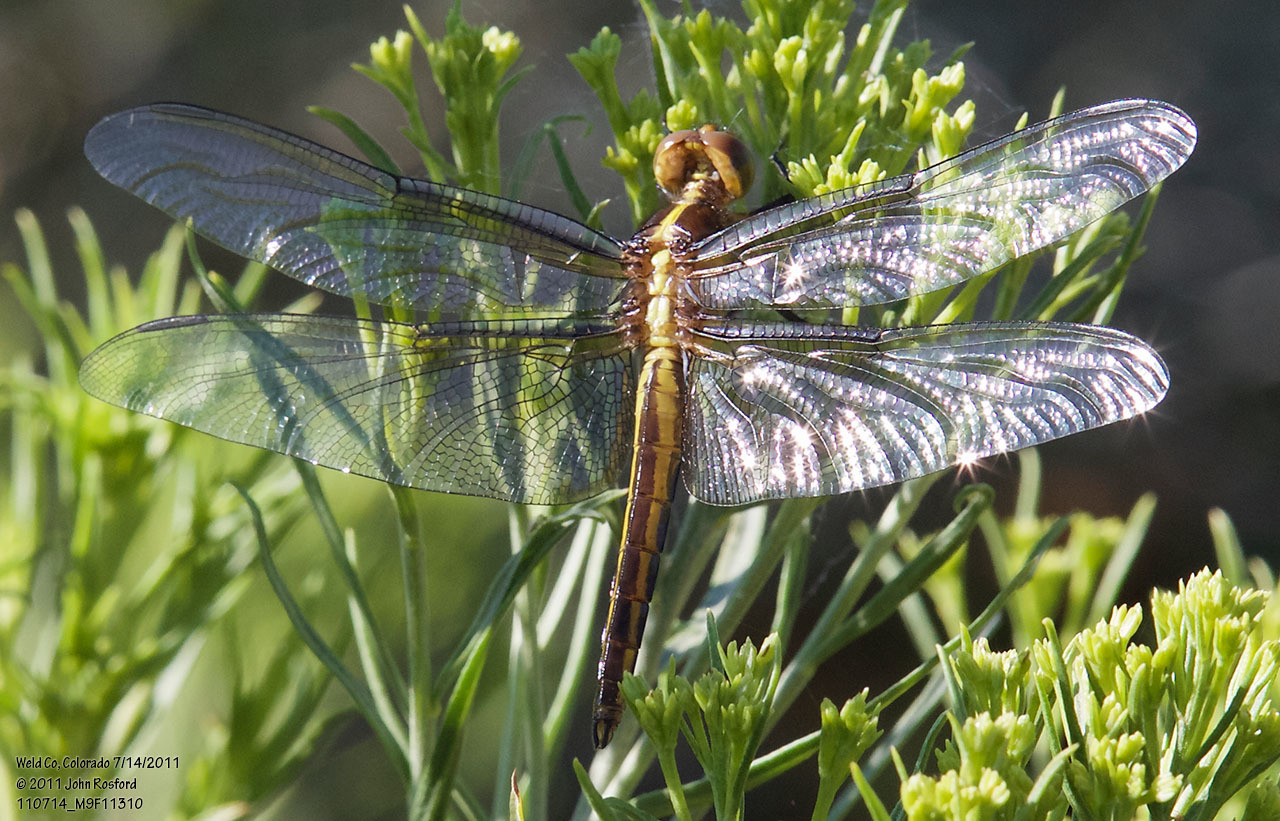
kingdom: Animalia
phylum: Arthropoda
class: Insecta
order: Odonata
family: Libellulidae
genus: Libellula
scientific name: Libellula luctuosa
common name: Widow skimmer
